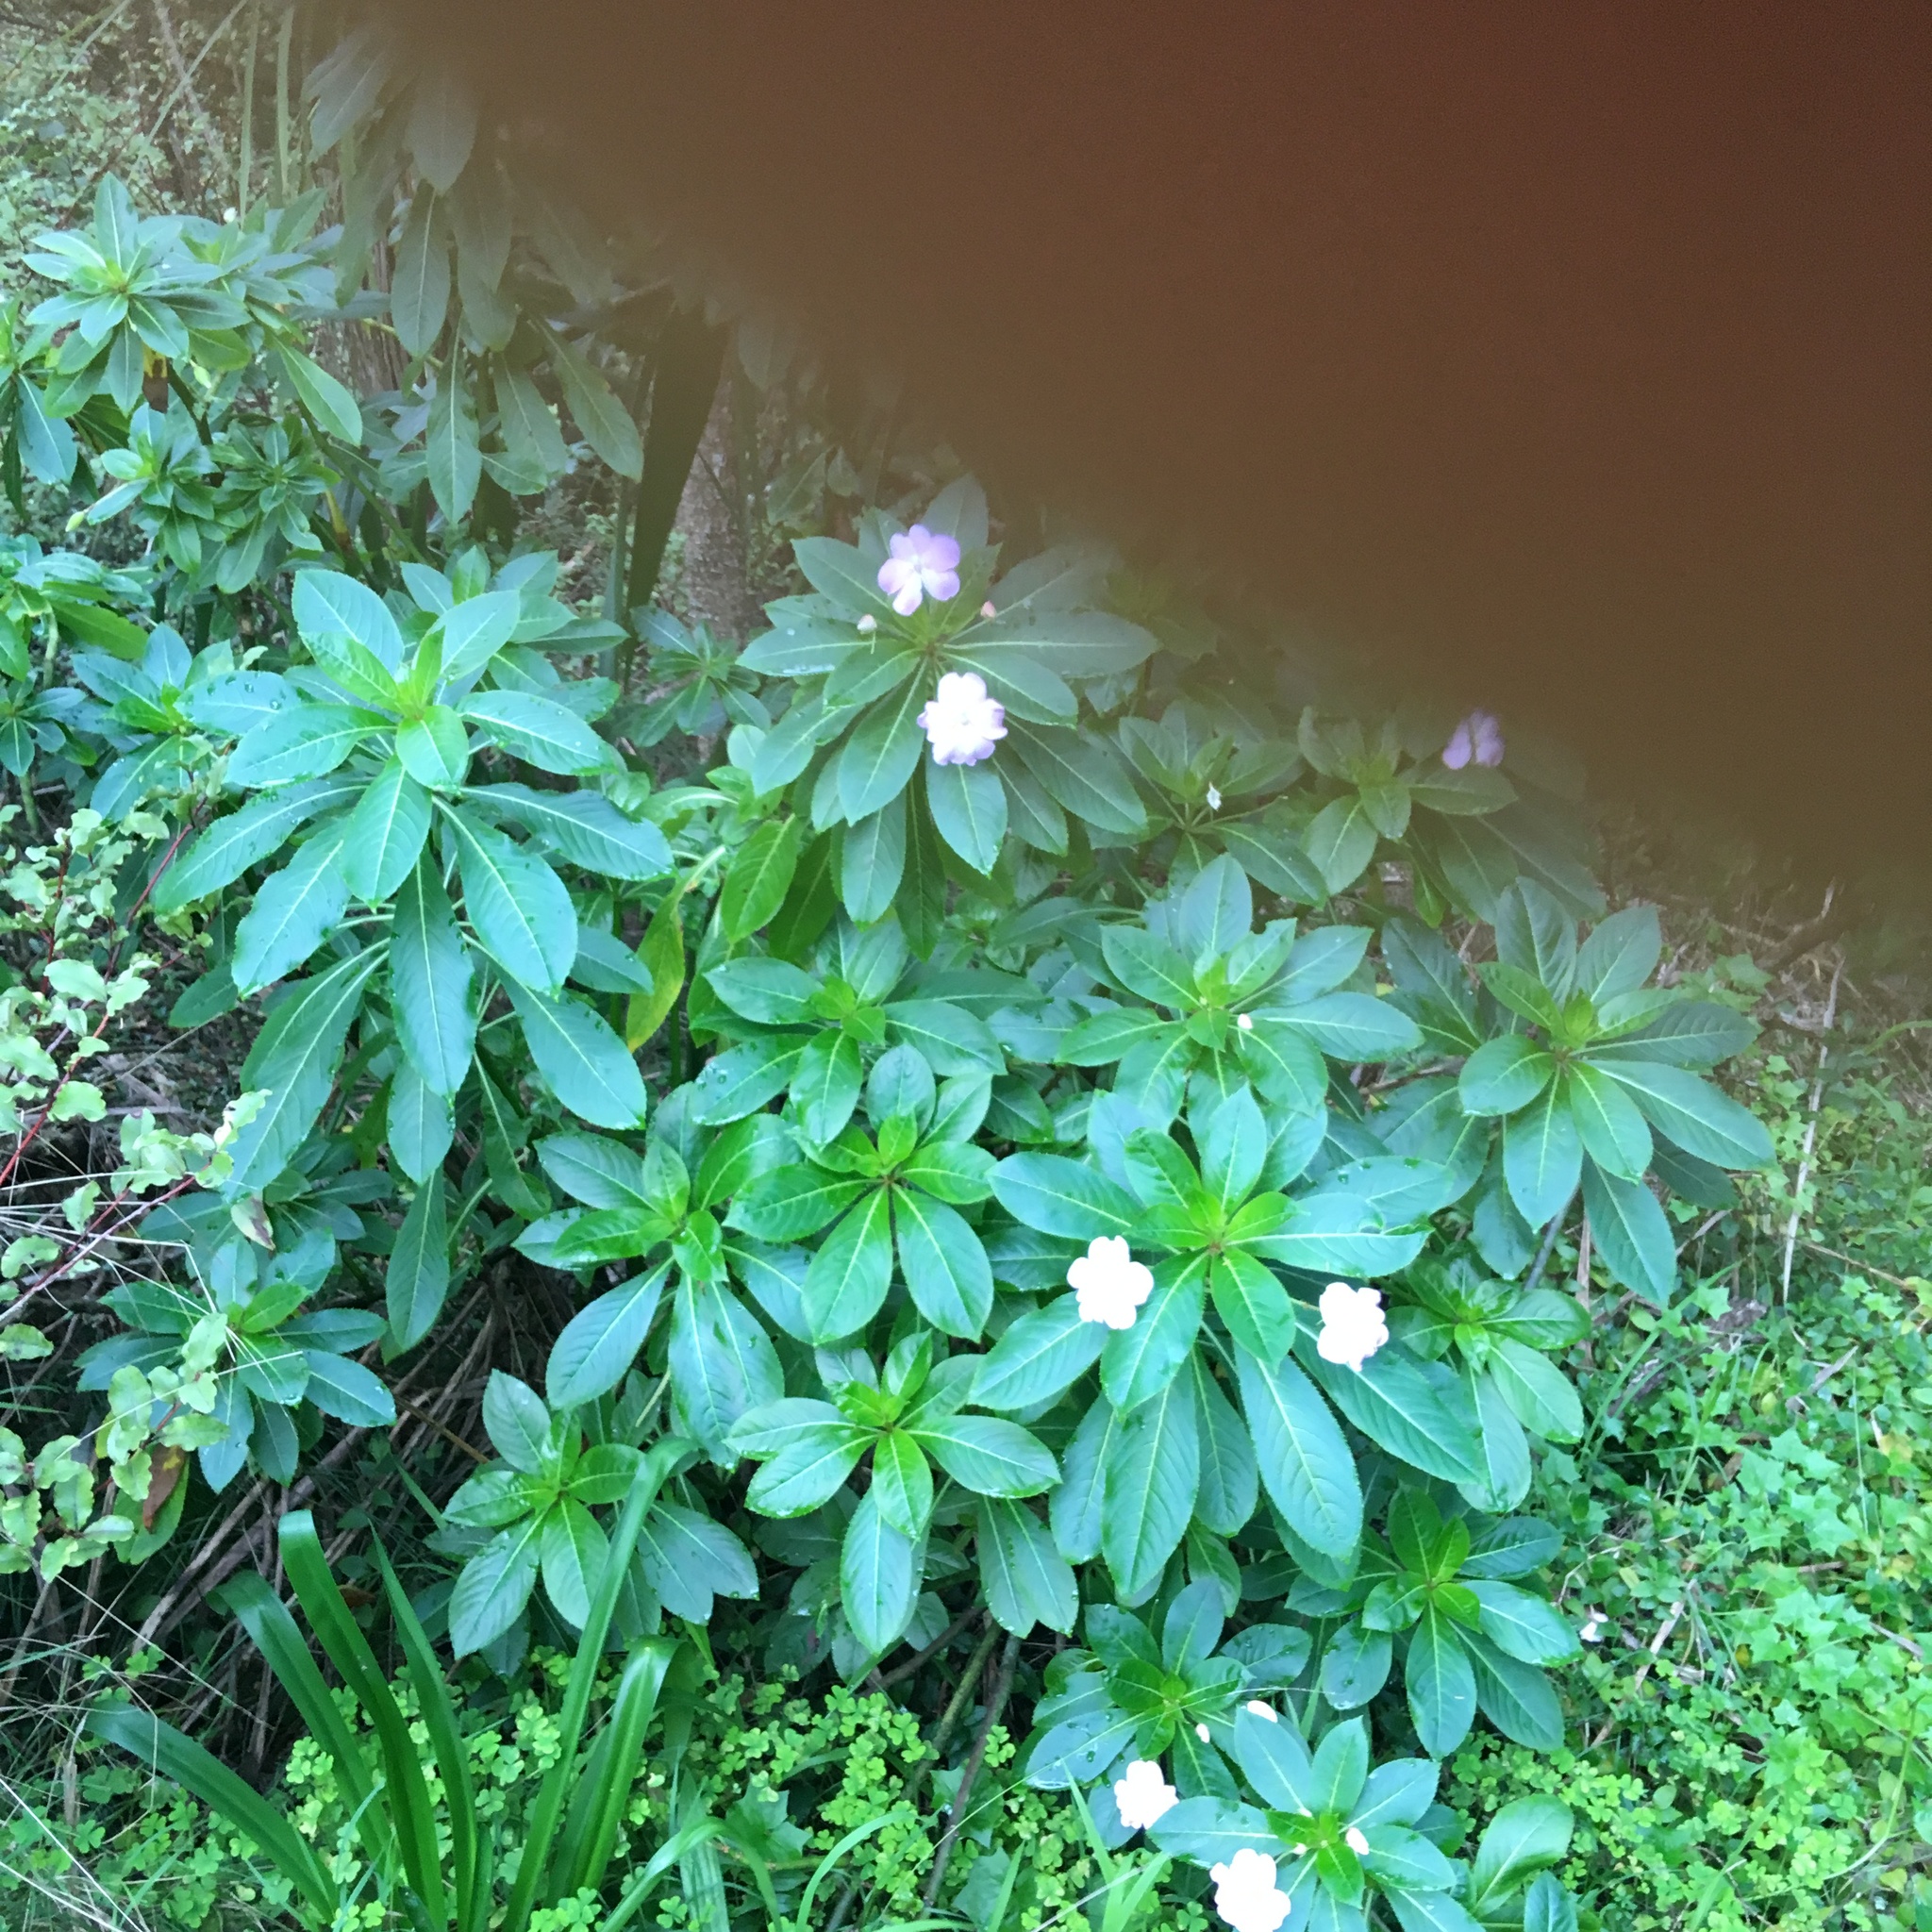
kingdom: Plantae
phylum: Tracheophyta
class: Magnoliopsida
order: Ericales
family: Balsaminaceae
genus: Impatiens
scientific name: Impatiens sodenii
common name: Oliver's touch-me-not
